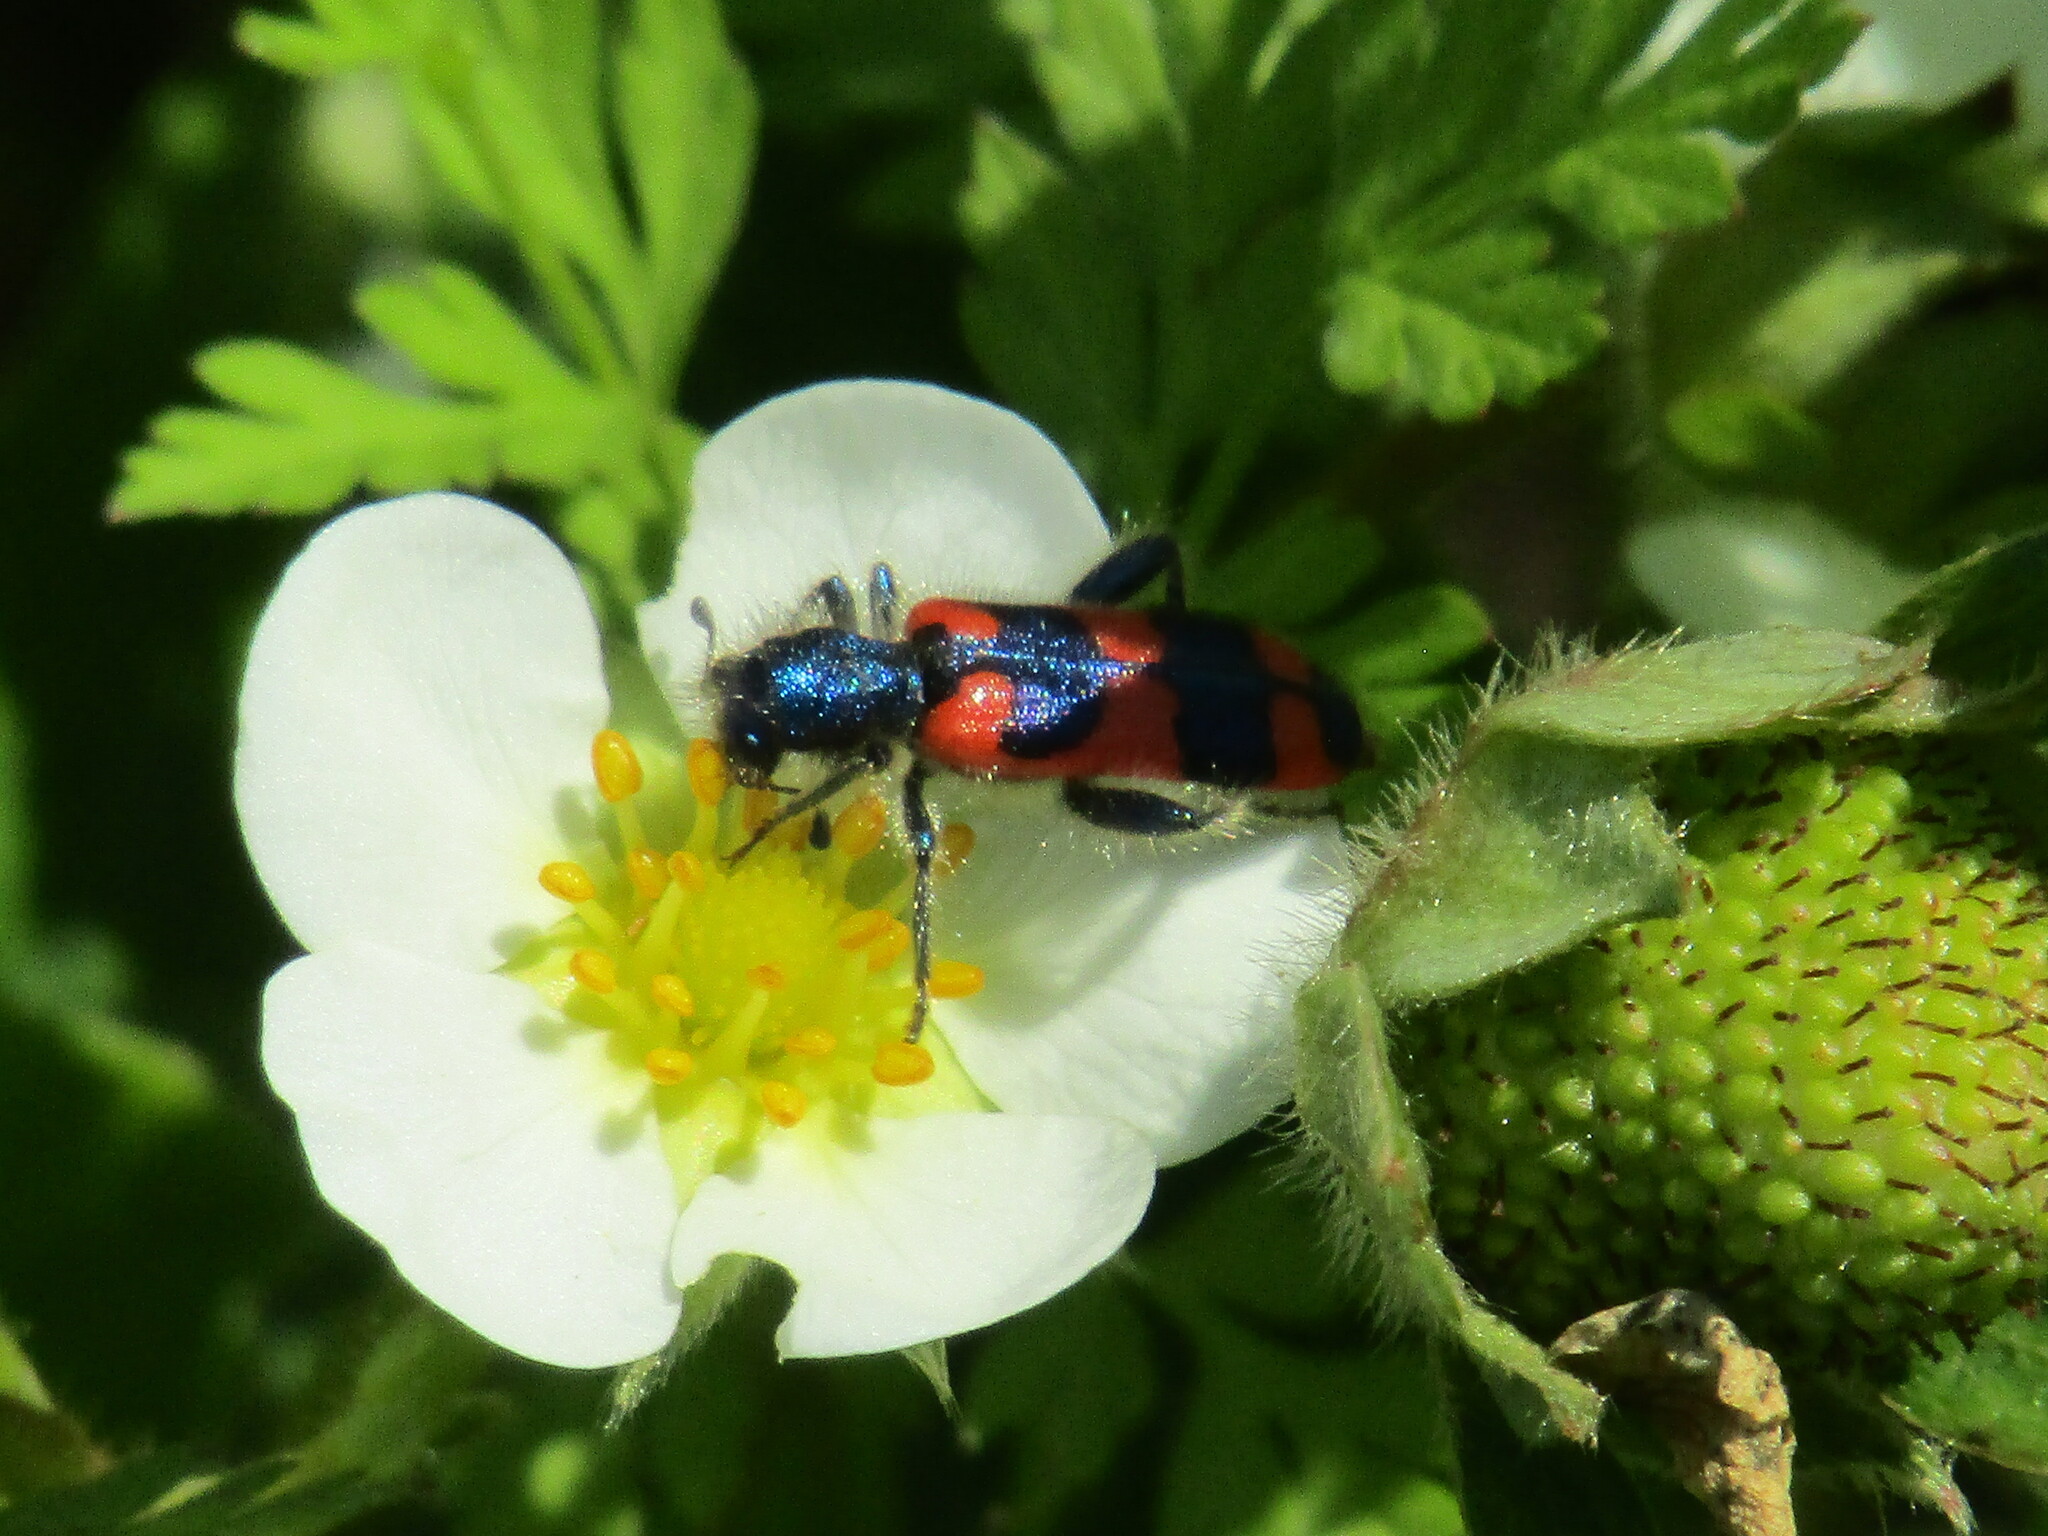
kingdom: Animalia
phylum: Arthropoda
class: Insecta
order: Coleoptera
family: Cleridae
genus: Trichodes
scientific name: Trichodes punctatus
